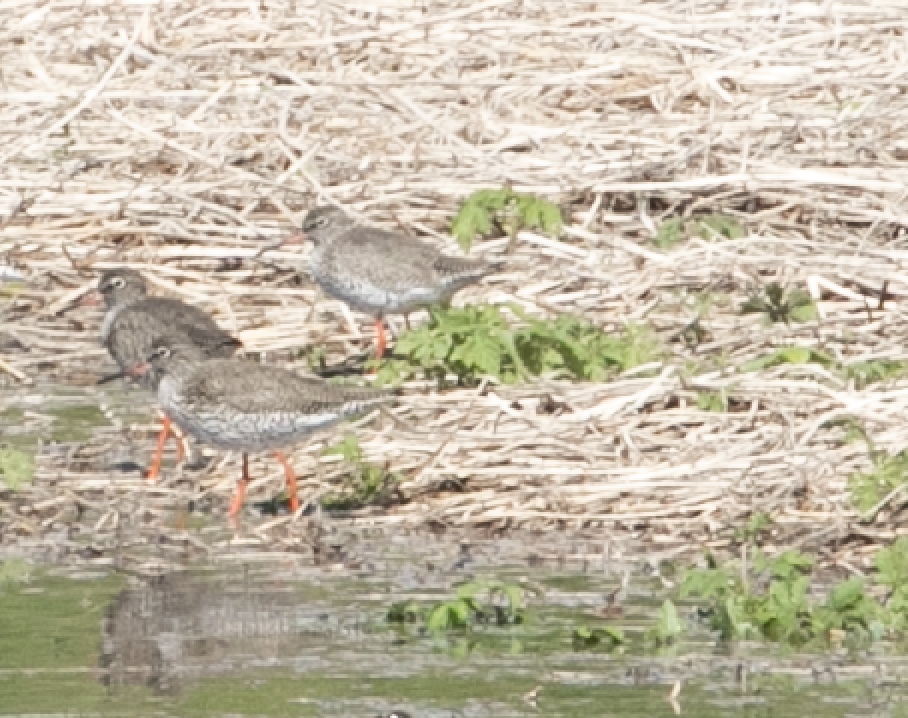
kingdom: Animalia
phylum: Chordata
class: Aves
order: Charadriiformes
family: Scolopacidae
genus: Tringa
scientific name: Tringa totanus
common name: Common redshank
